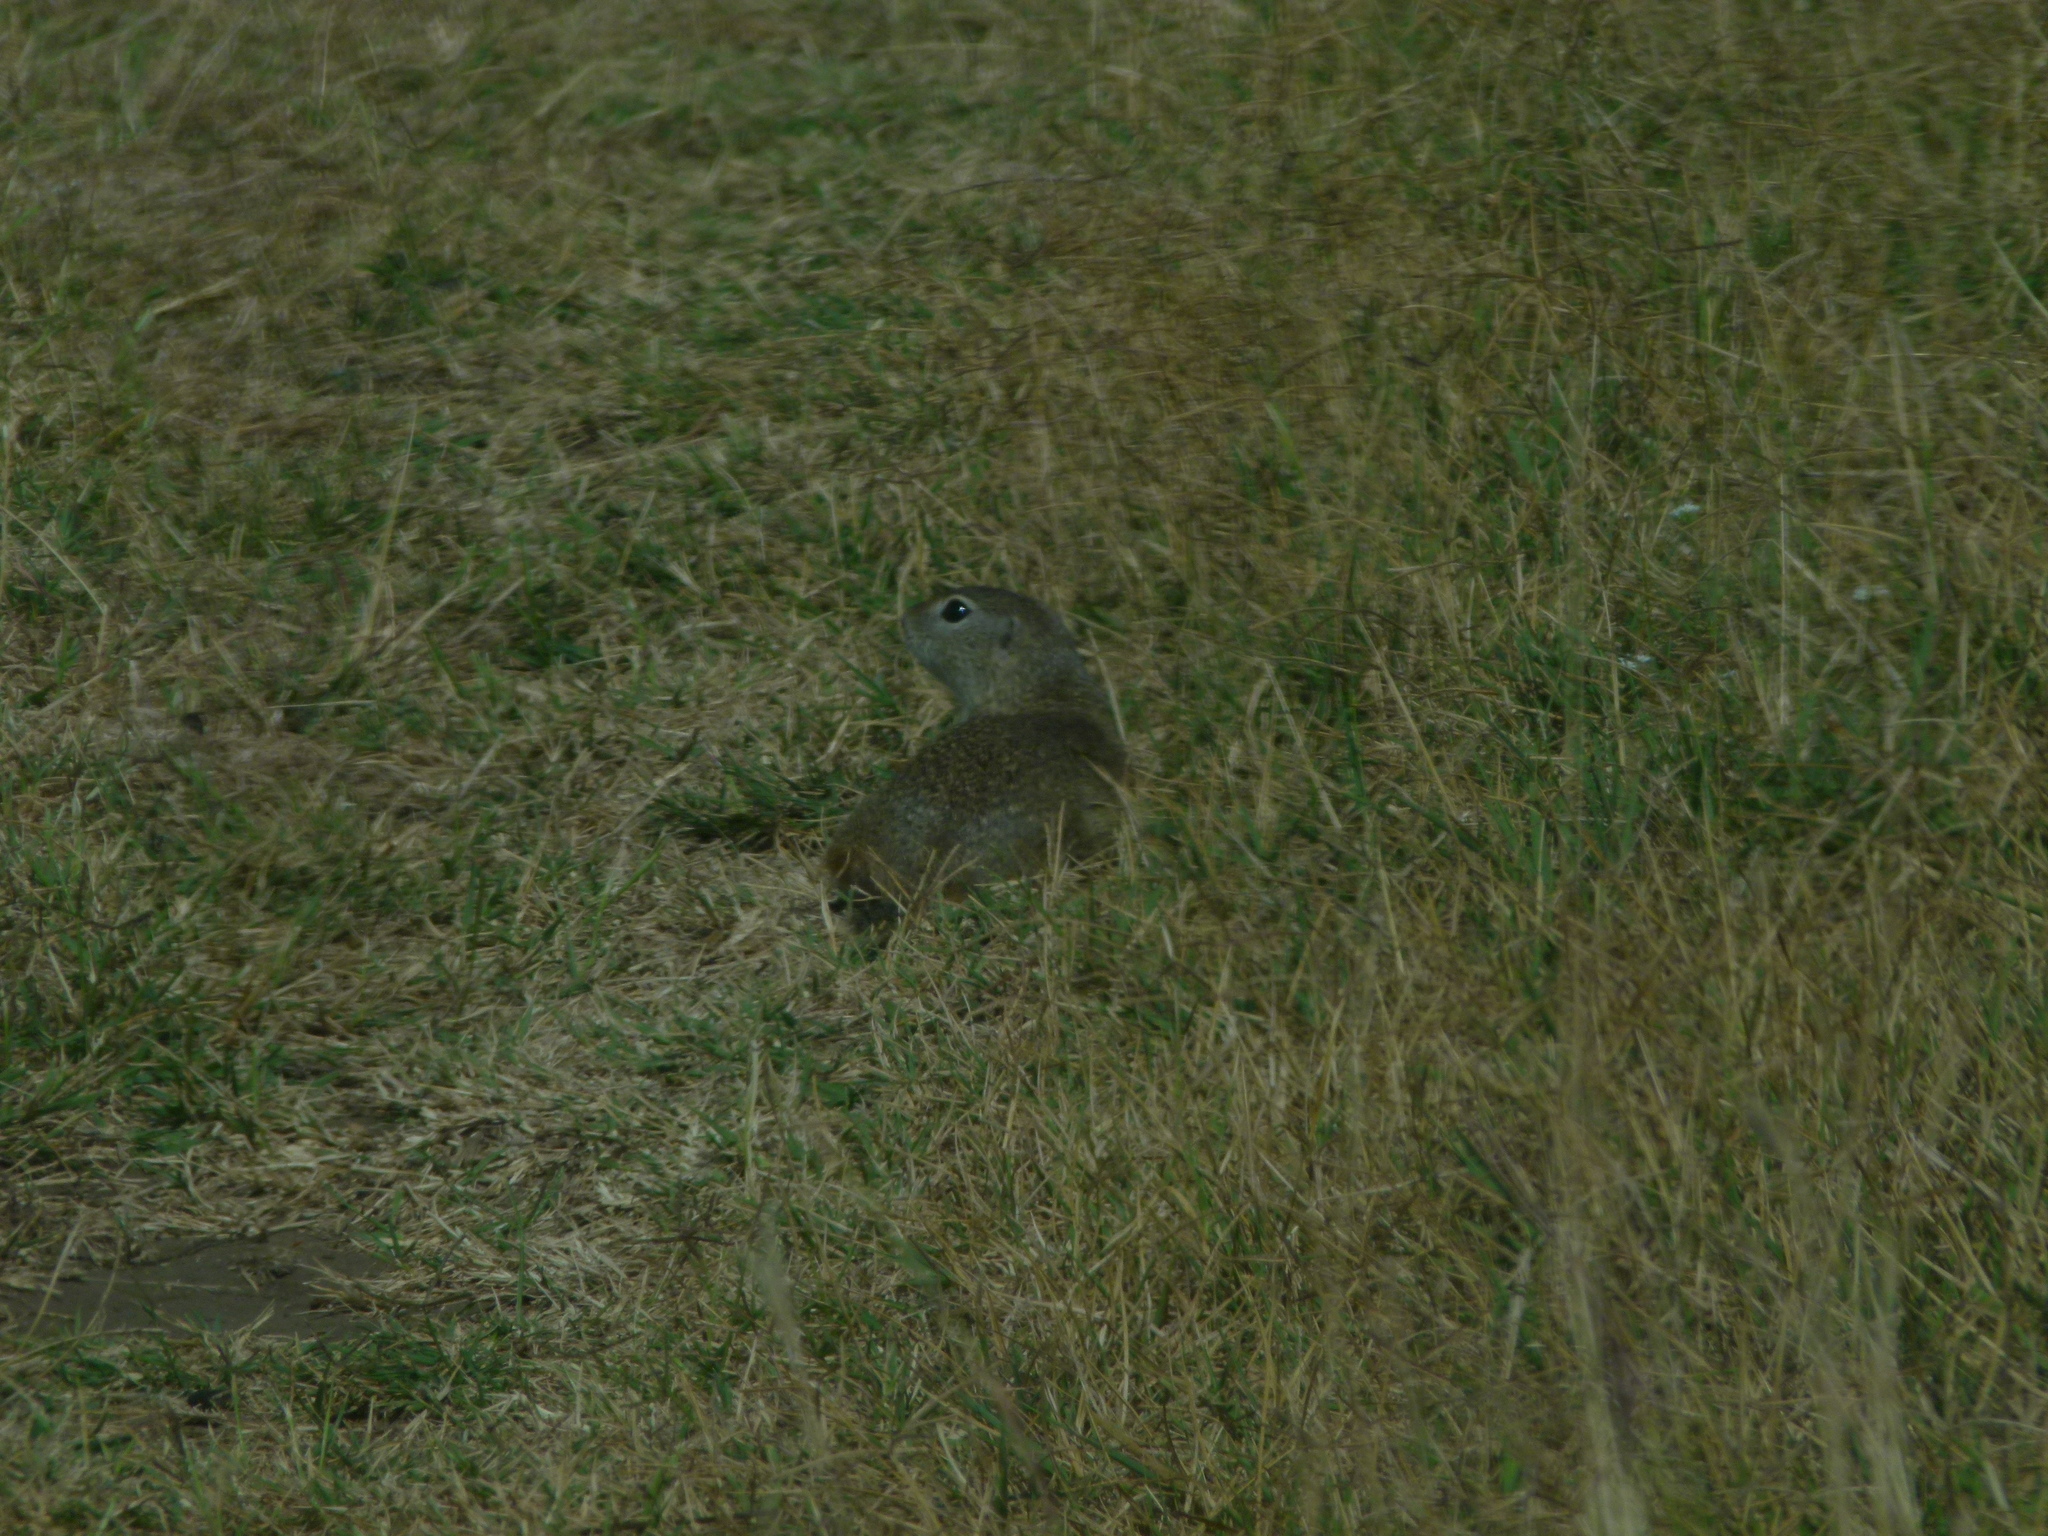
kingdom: Animalia
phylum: Chordata
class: Mammalia
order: Rodentia
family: Sciuridae
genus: Spermophilus
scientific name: Spermophilus citellus
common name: European ground squirrel
